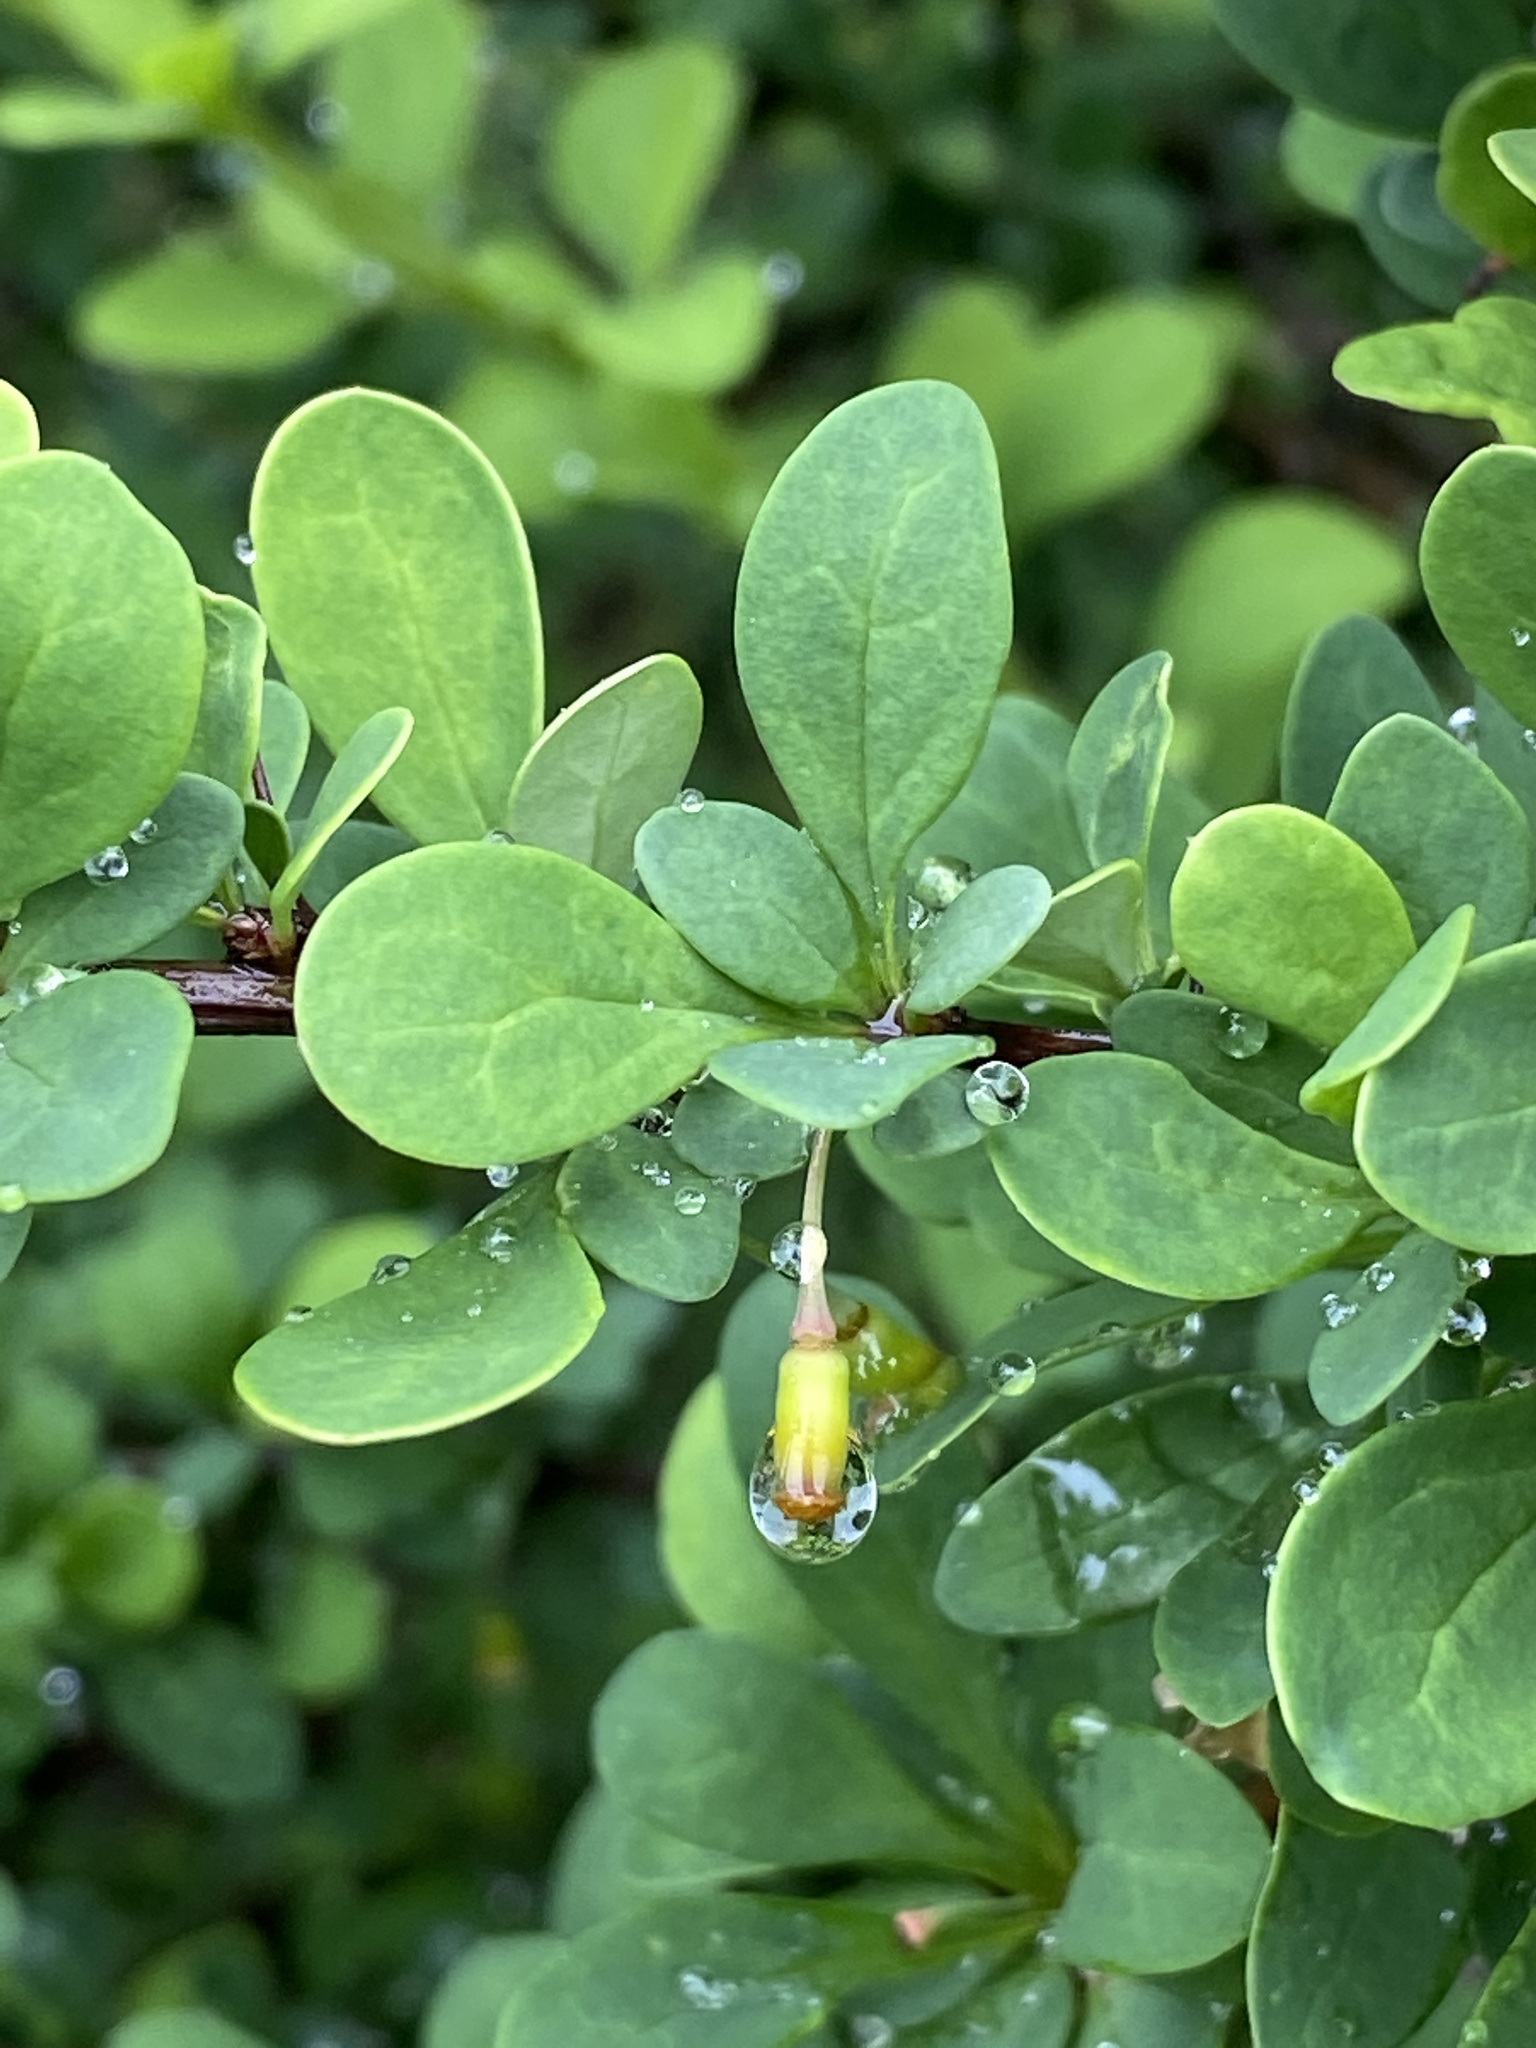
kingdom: Plantae
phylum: Tracheophyta
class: Magnoliopsida
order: Ranunculales
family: Berberidaceae
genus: Berberis
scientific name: Berberis thunbergii
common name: Japanese barberry
